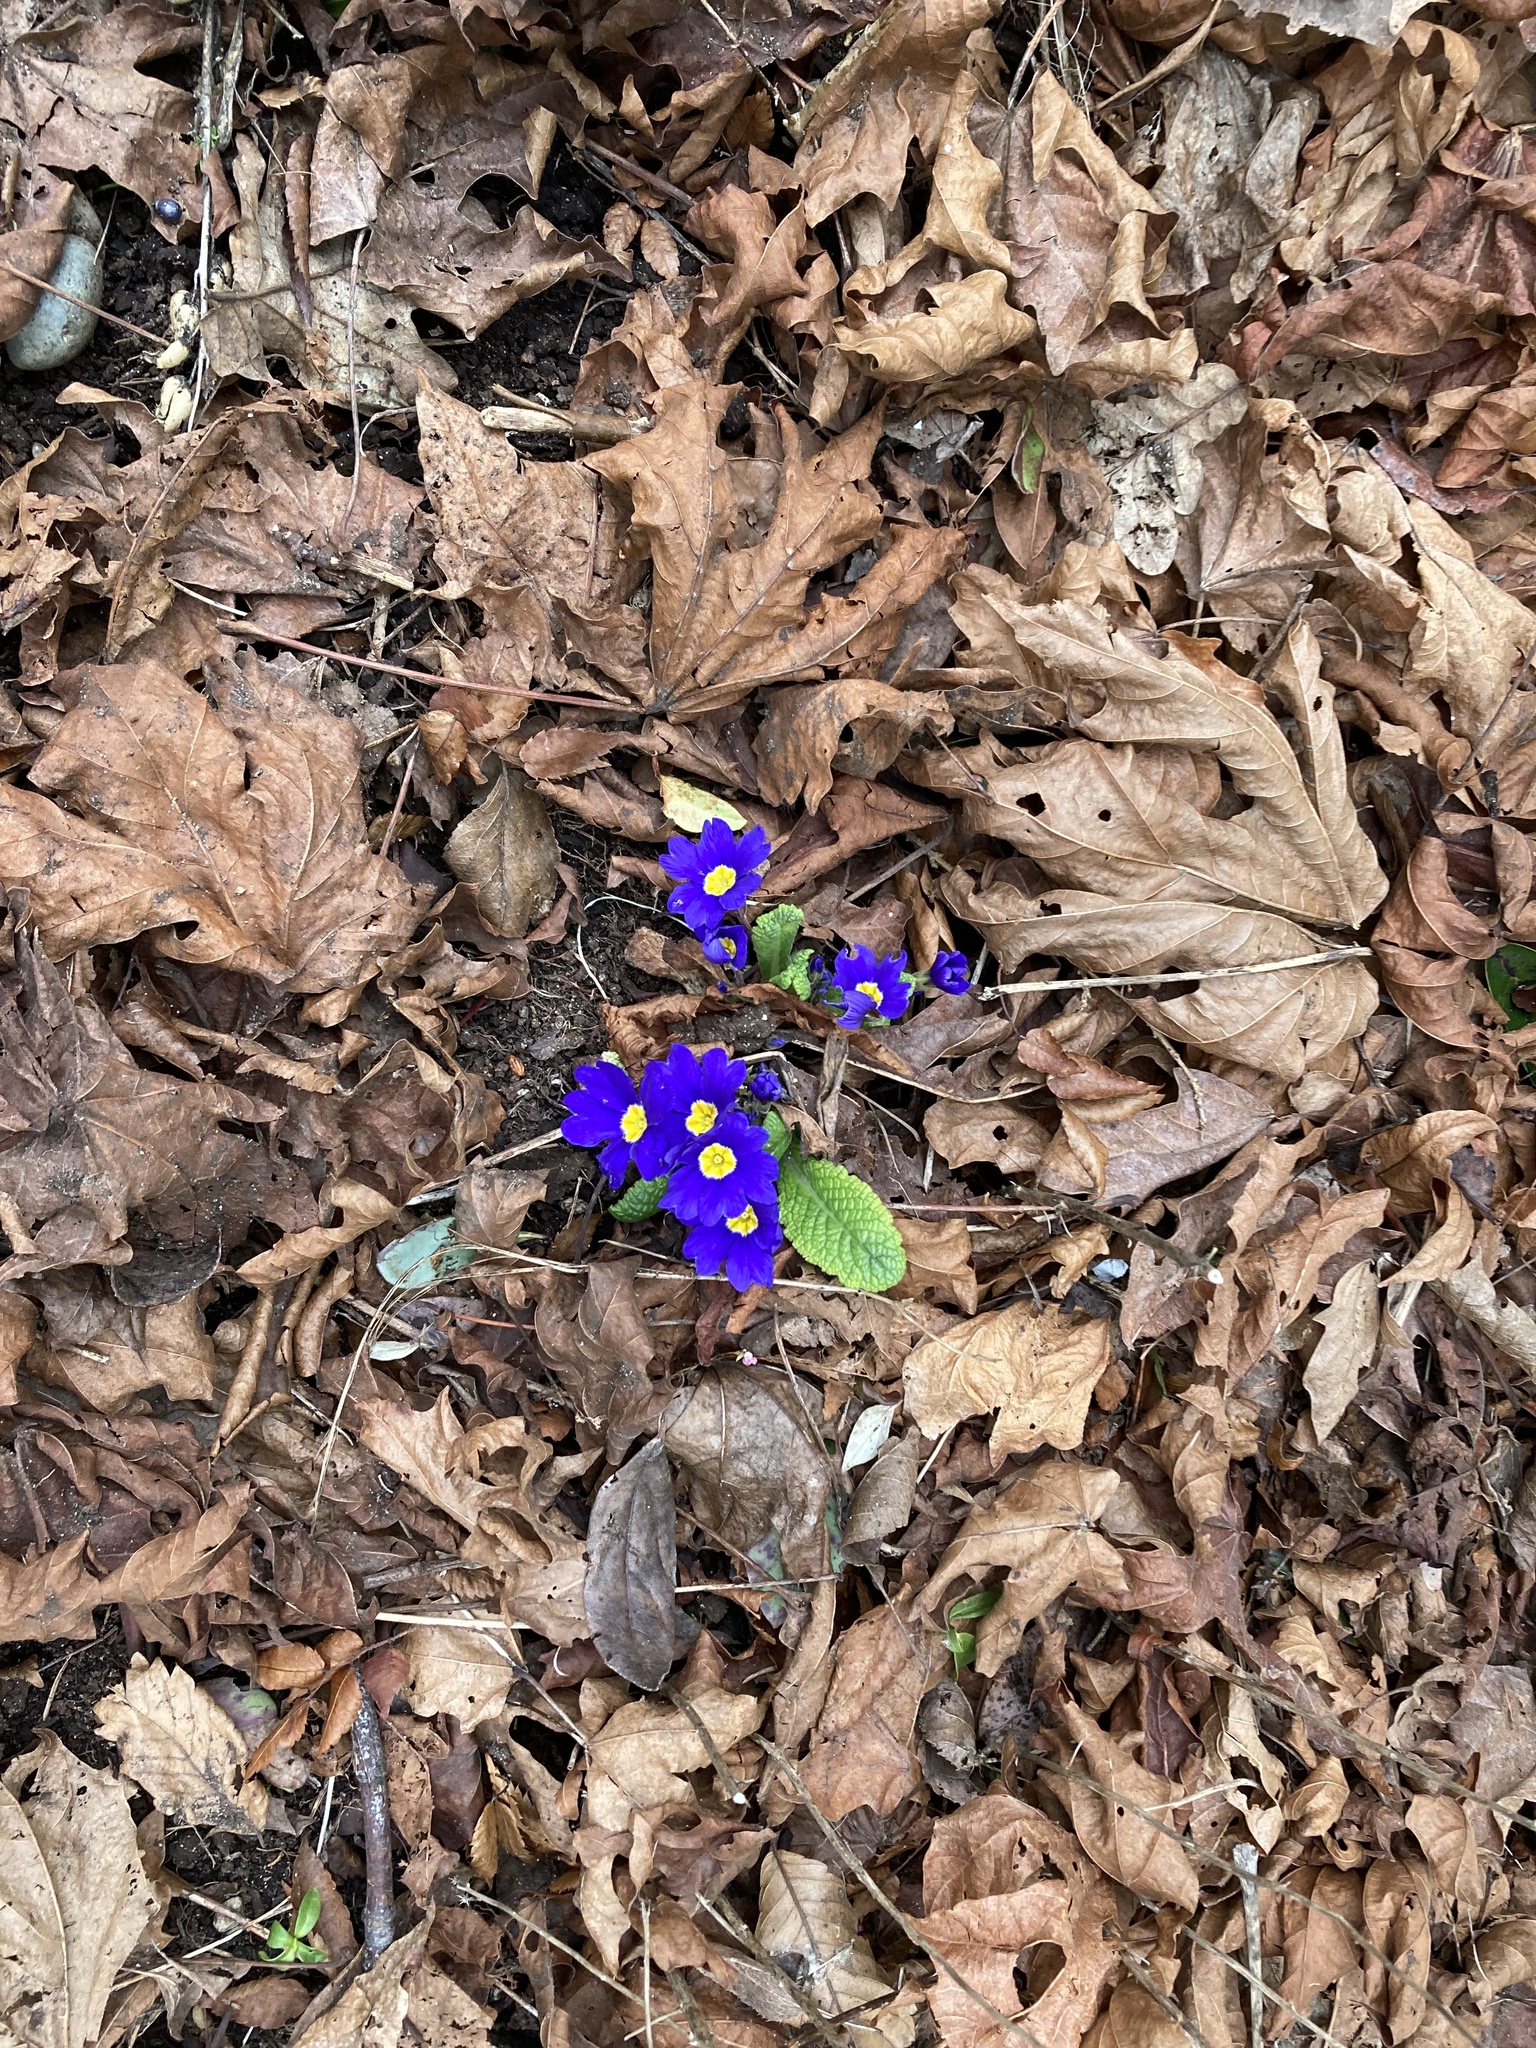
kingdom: Plantae
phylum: Tracheophyta
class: Magnoliopsida
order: Ericales
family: Primulaceae
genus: Primula
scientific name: Primula vulgaris
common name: Primrose
